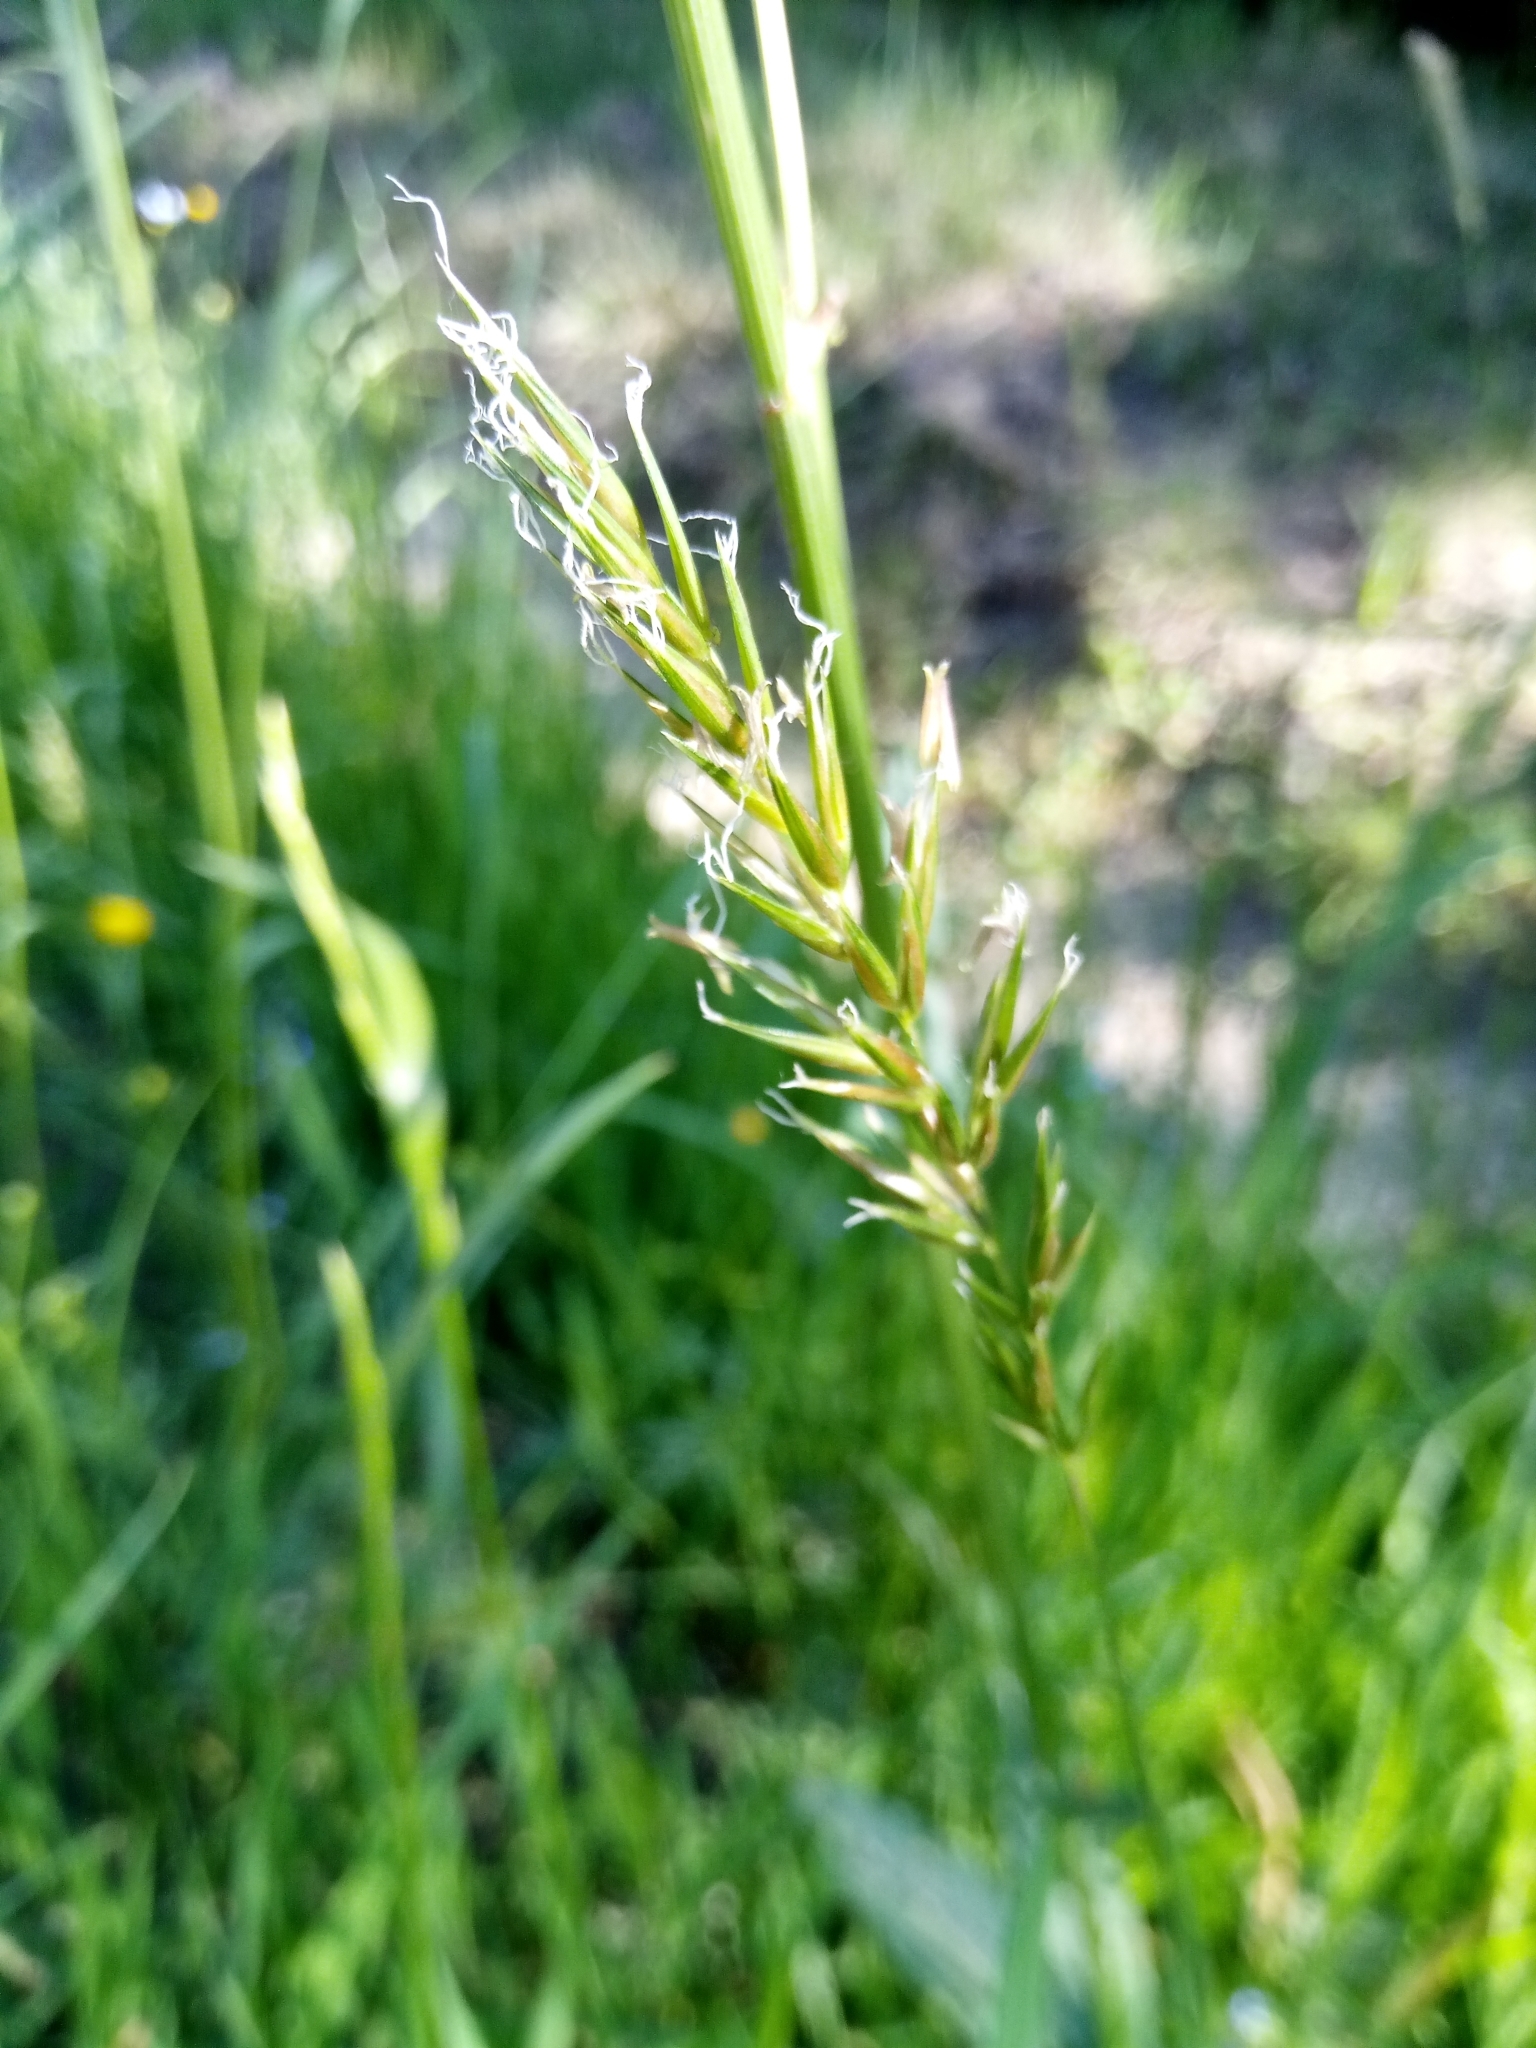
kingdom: Plantae
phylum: Tracheophyta
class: Liliopsida
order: Poales
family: Poaceae
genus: Anthoxanthum
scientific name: Anthoxanthum odoratum
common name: Sweet vernalgrass
